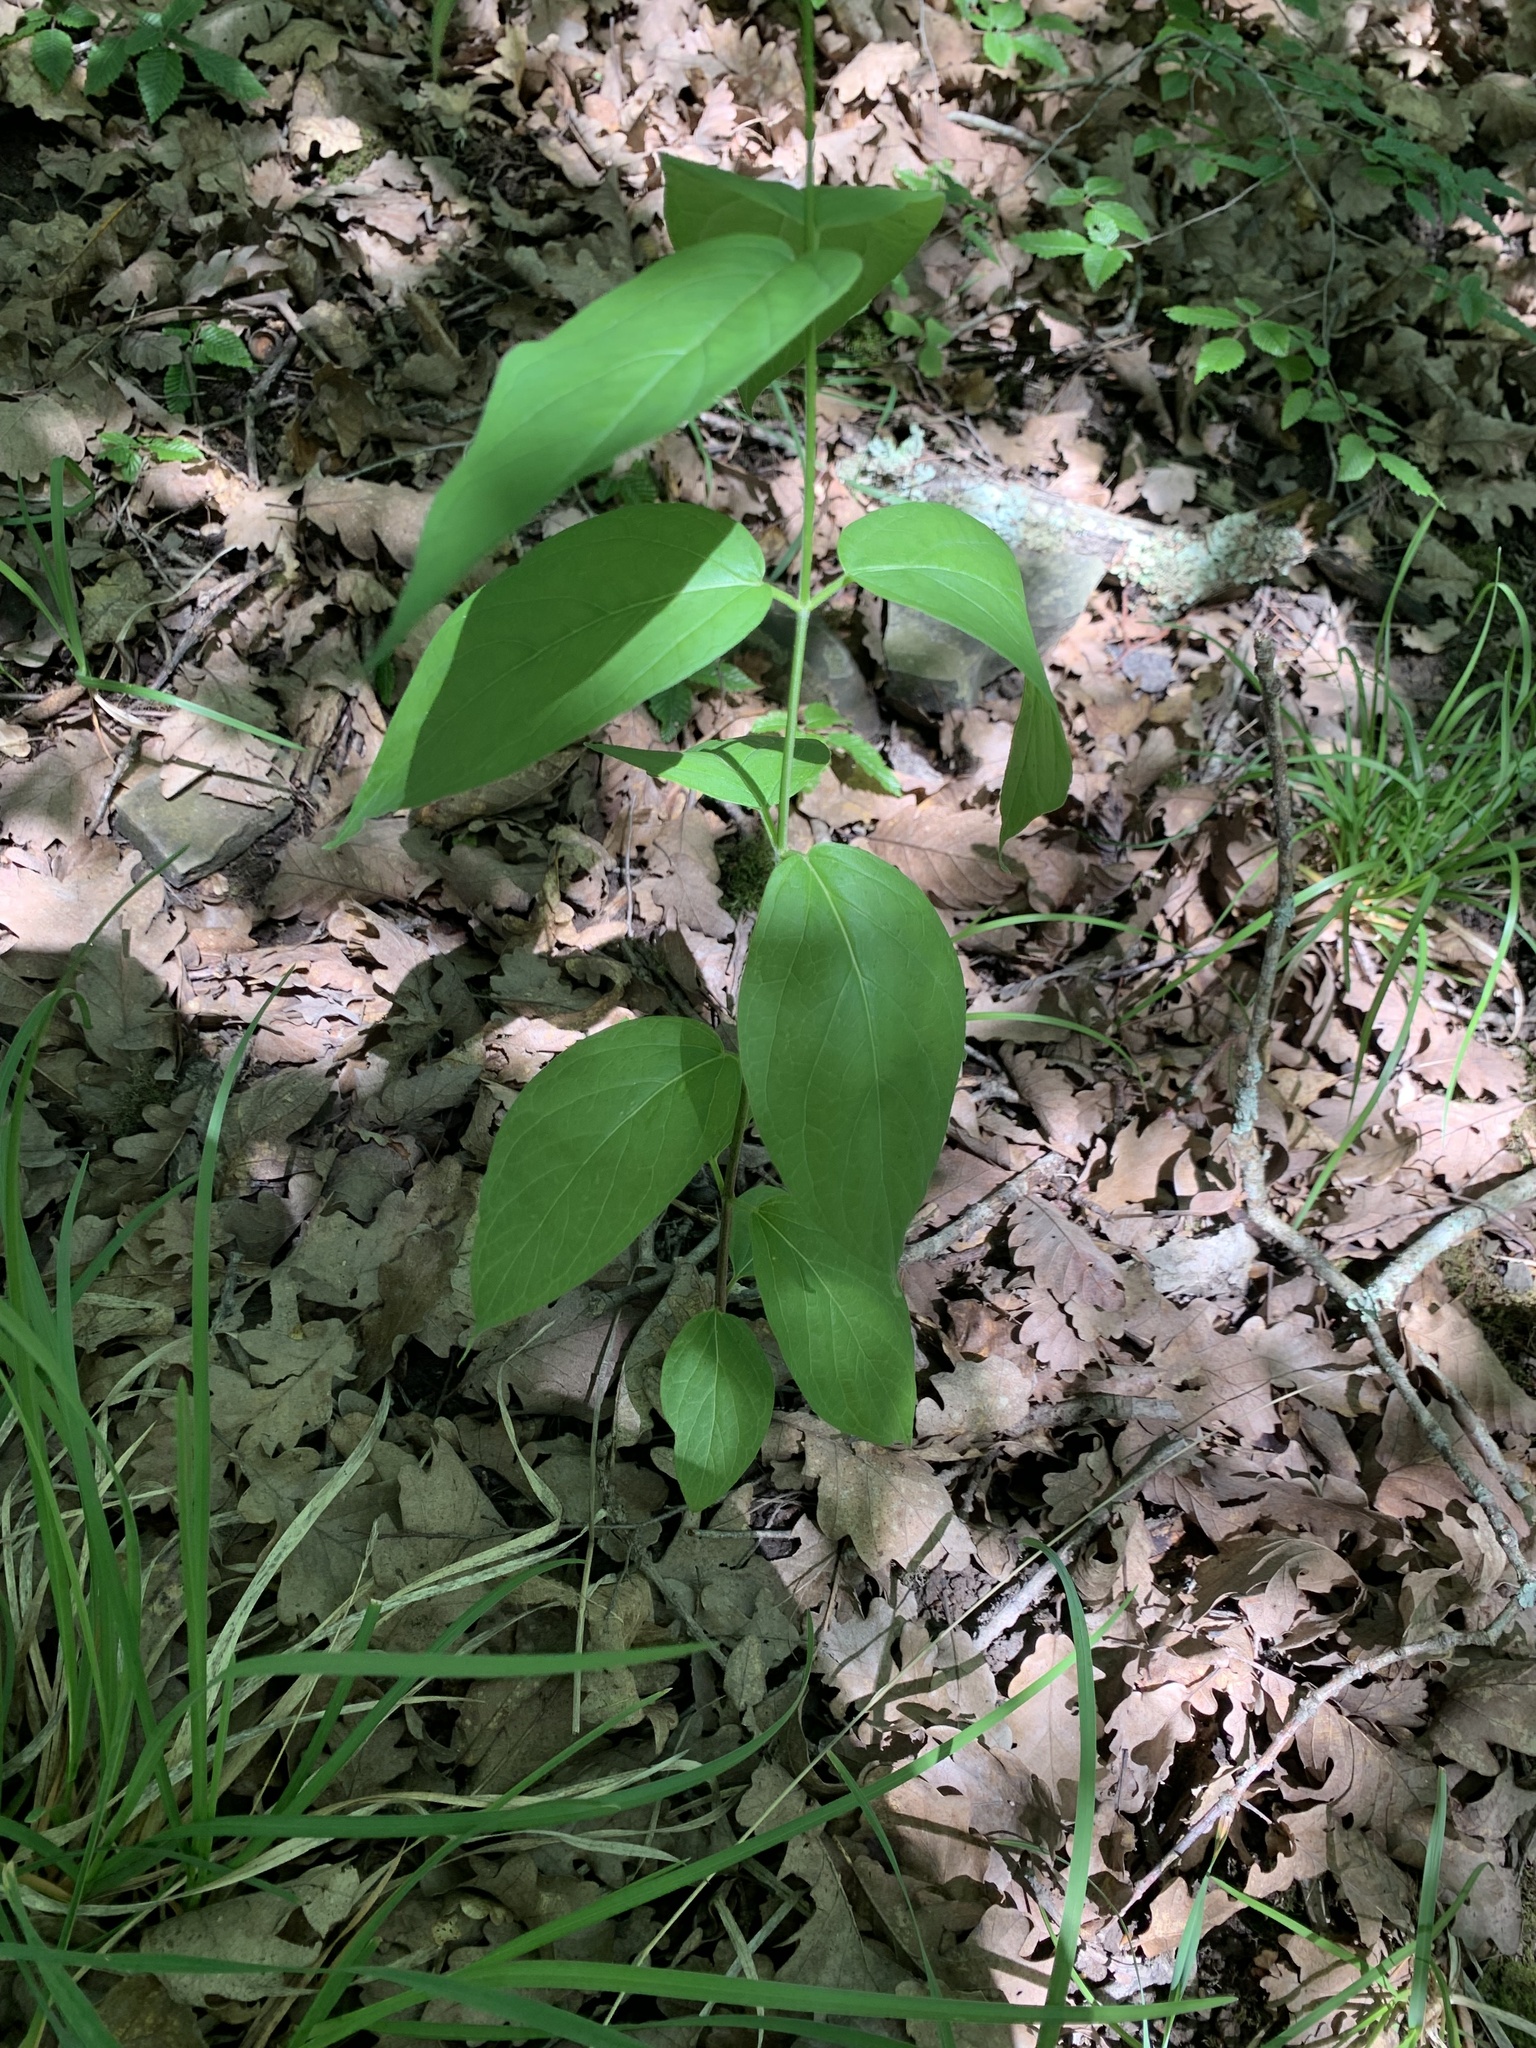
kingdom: Plantae
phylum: Tracheophyta
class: Magnoliopsida
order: Gentianales
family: Apocynaceae
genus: Vincetoxicum
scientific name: Vincetoxicum scandens
